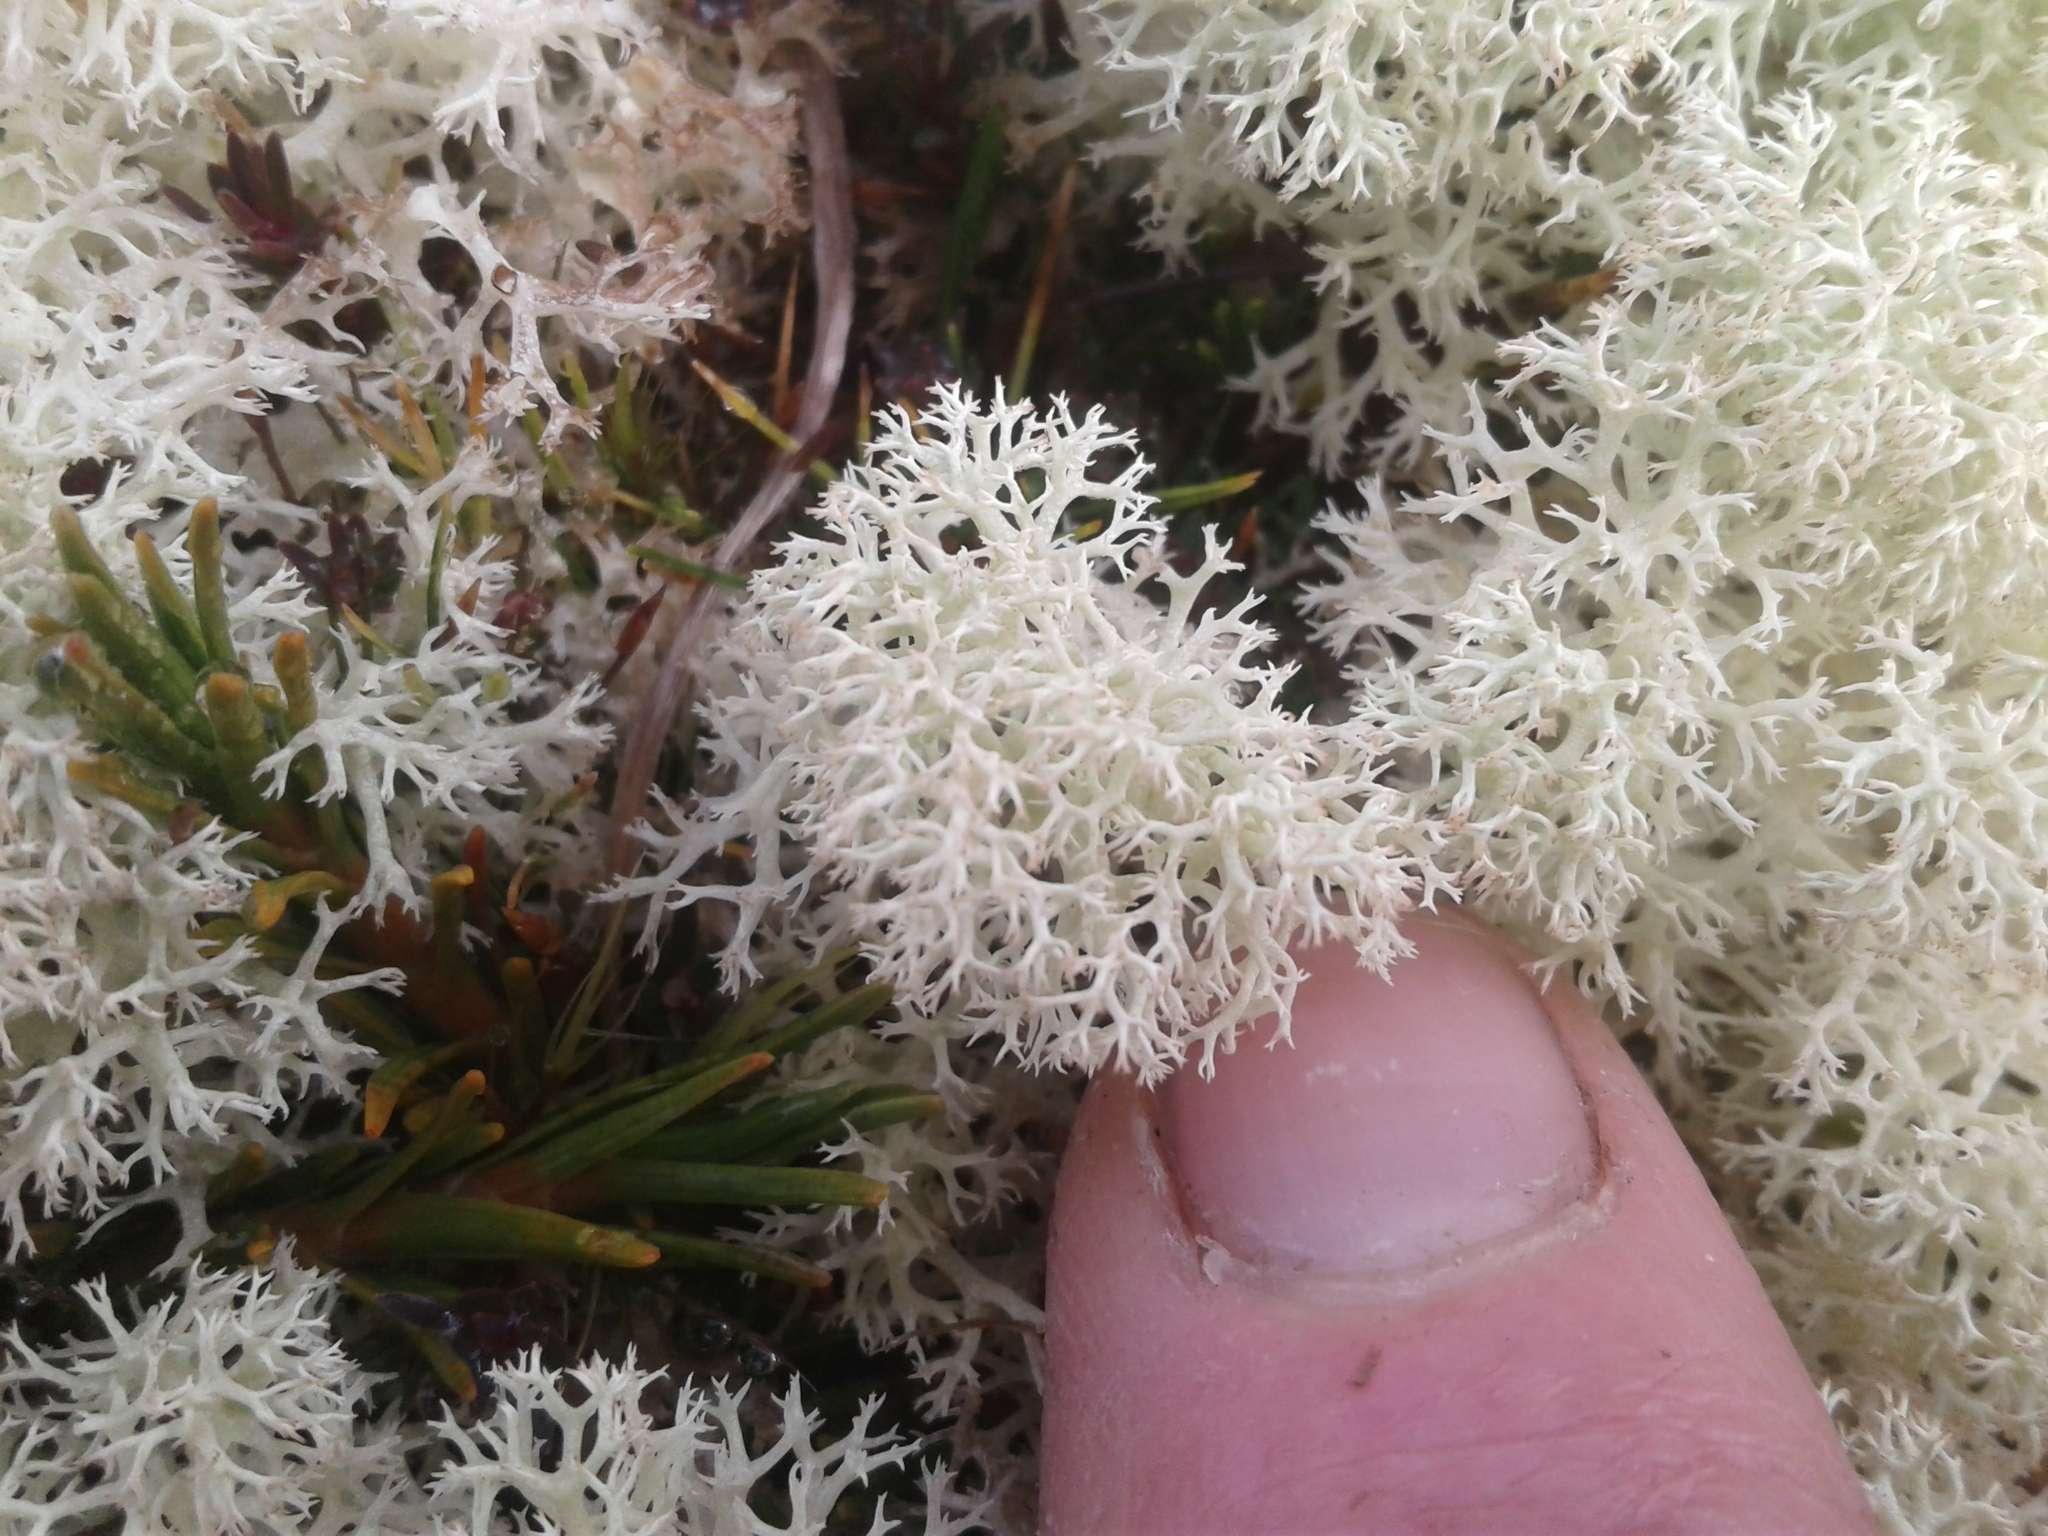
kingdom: Fungi
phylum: Ascomycota
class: Lecanoromycetes
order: Lecanorales
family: Cladoniaceae
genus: Cladonia
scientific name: Cladonia confusa
